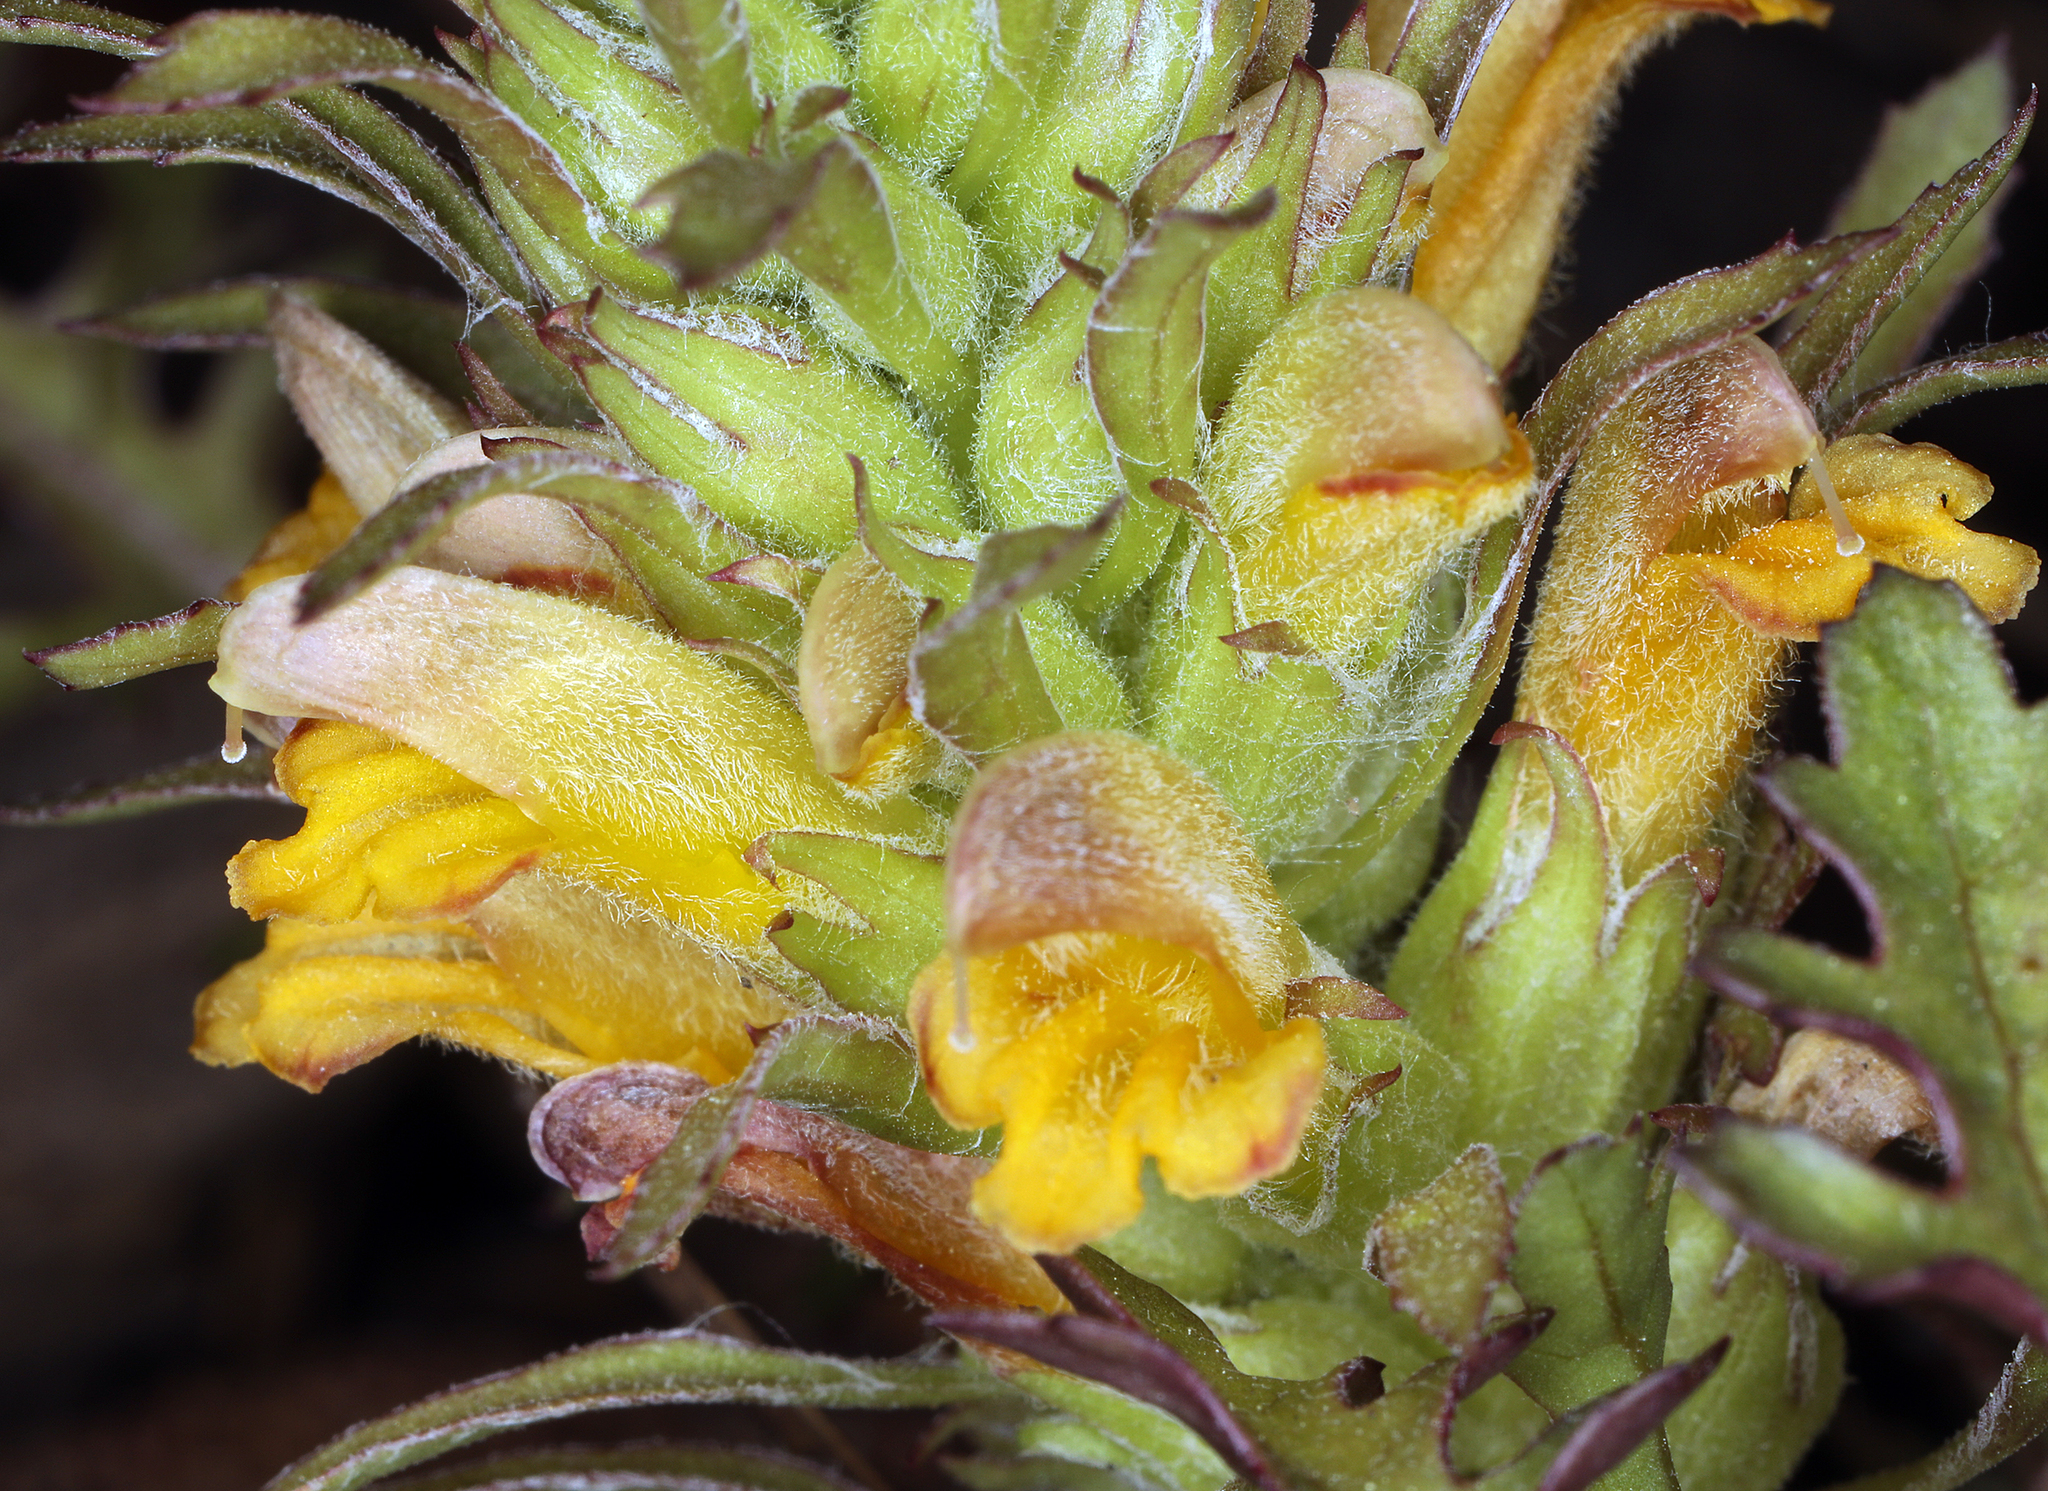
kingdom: Plantae
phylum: Tracheophyta
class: Magnoliopsida
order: Lamiales
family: Orobanchaceae
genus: Pedicularis
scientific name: Pedicularis semibarbata
